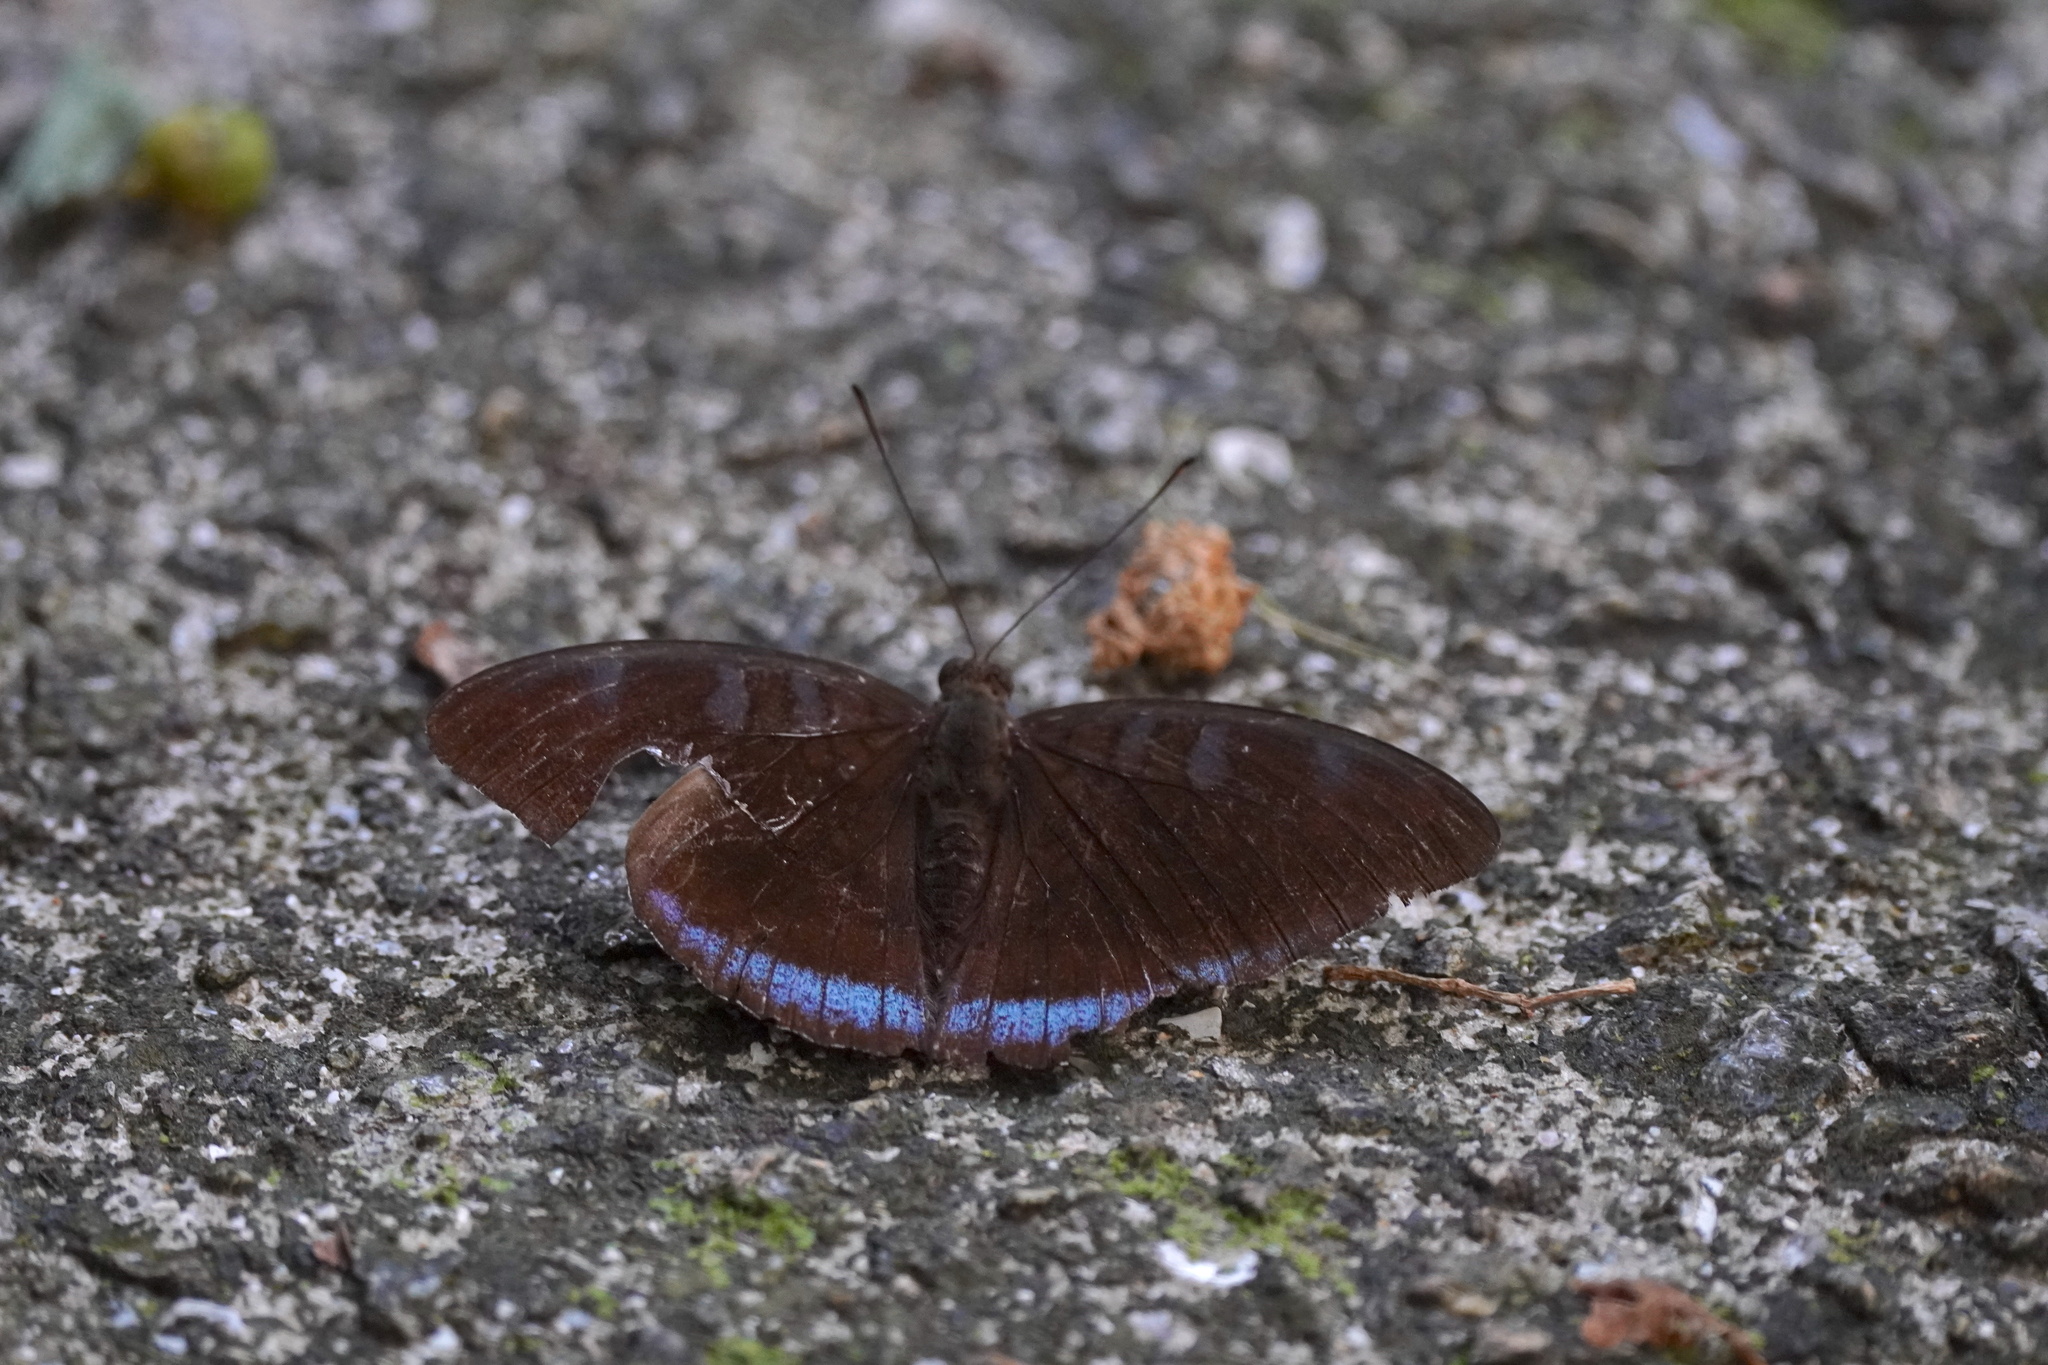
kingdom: Animalia
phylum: Arthropoda
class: Insecta
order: Lepidoptera
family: Nymphalidae
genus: Tanaecia
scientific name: Tanaecia
